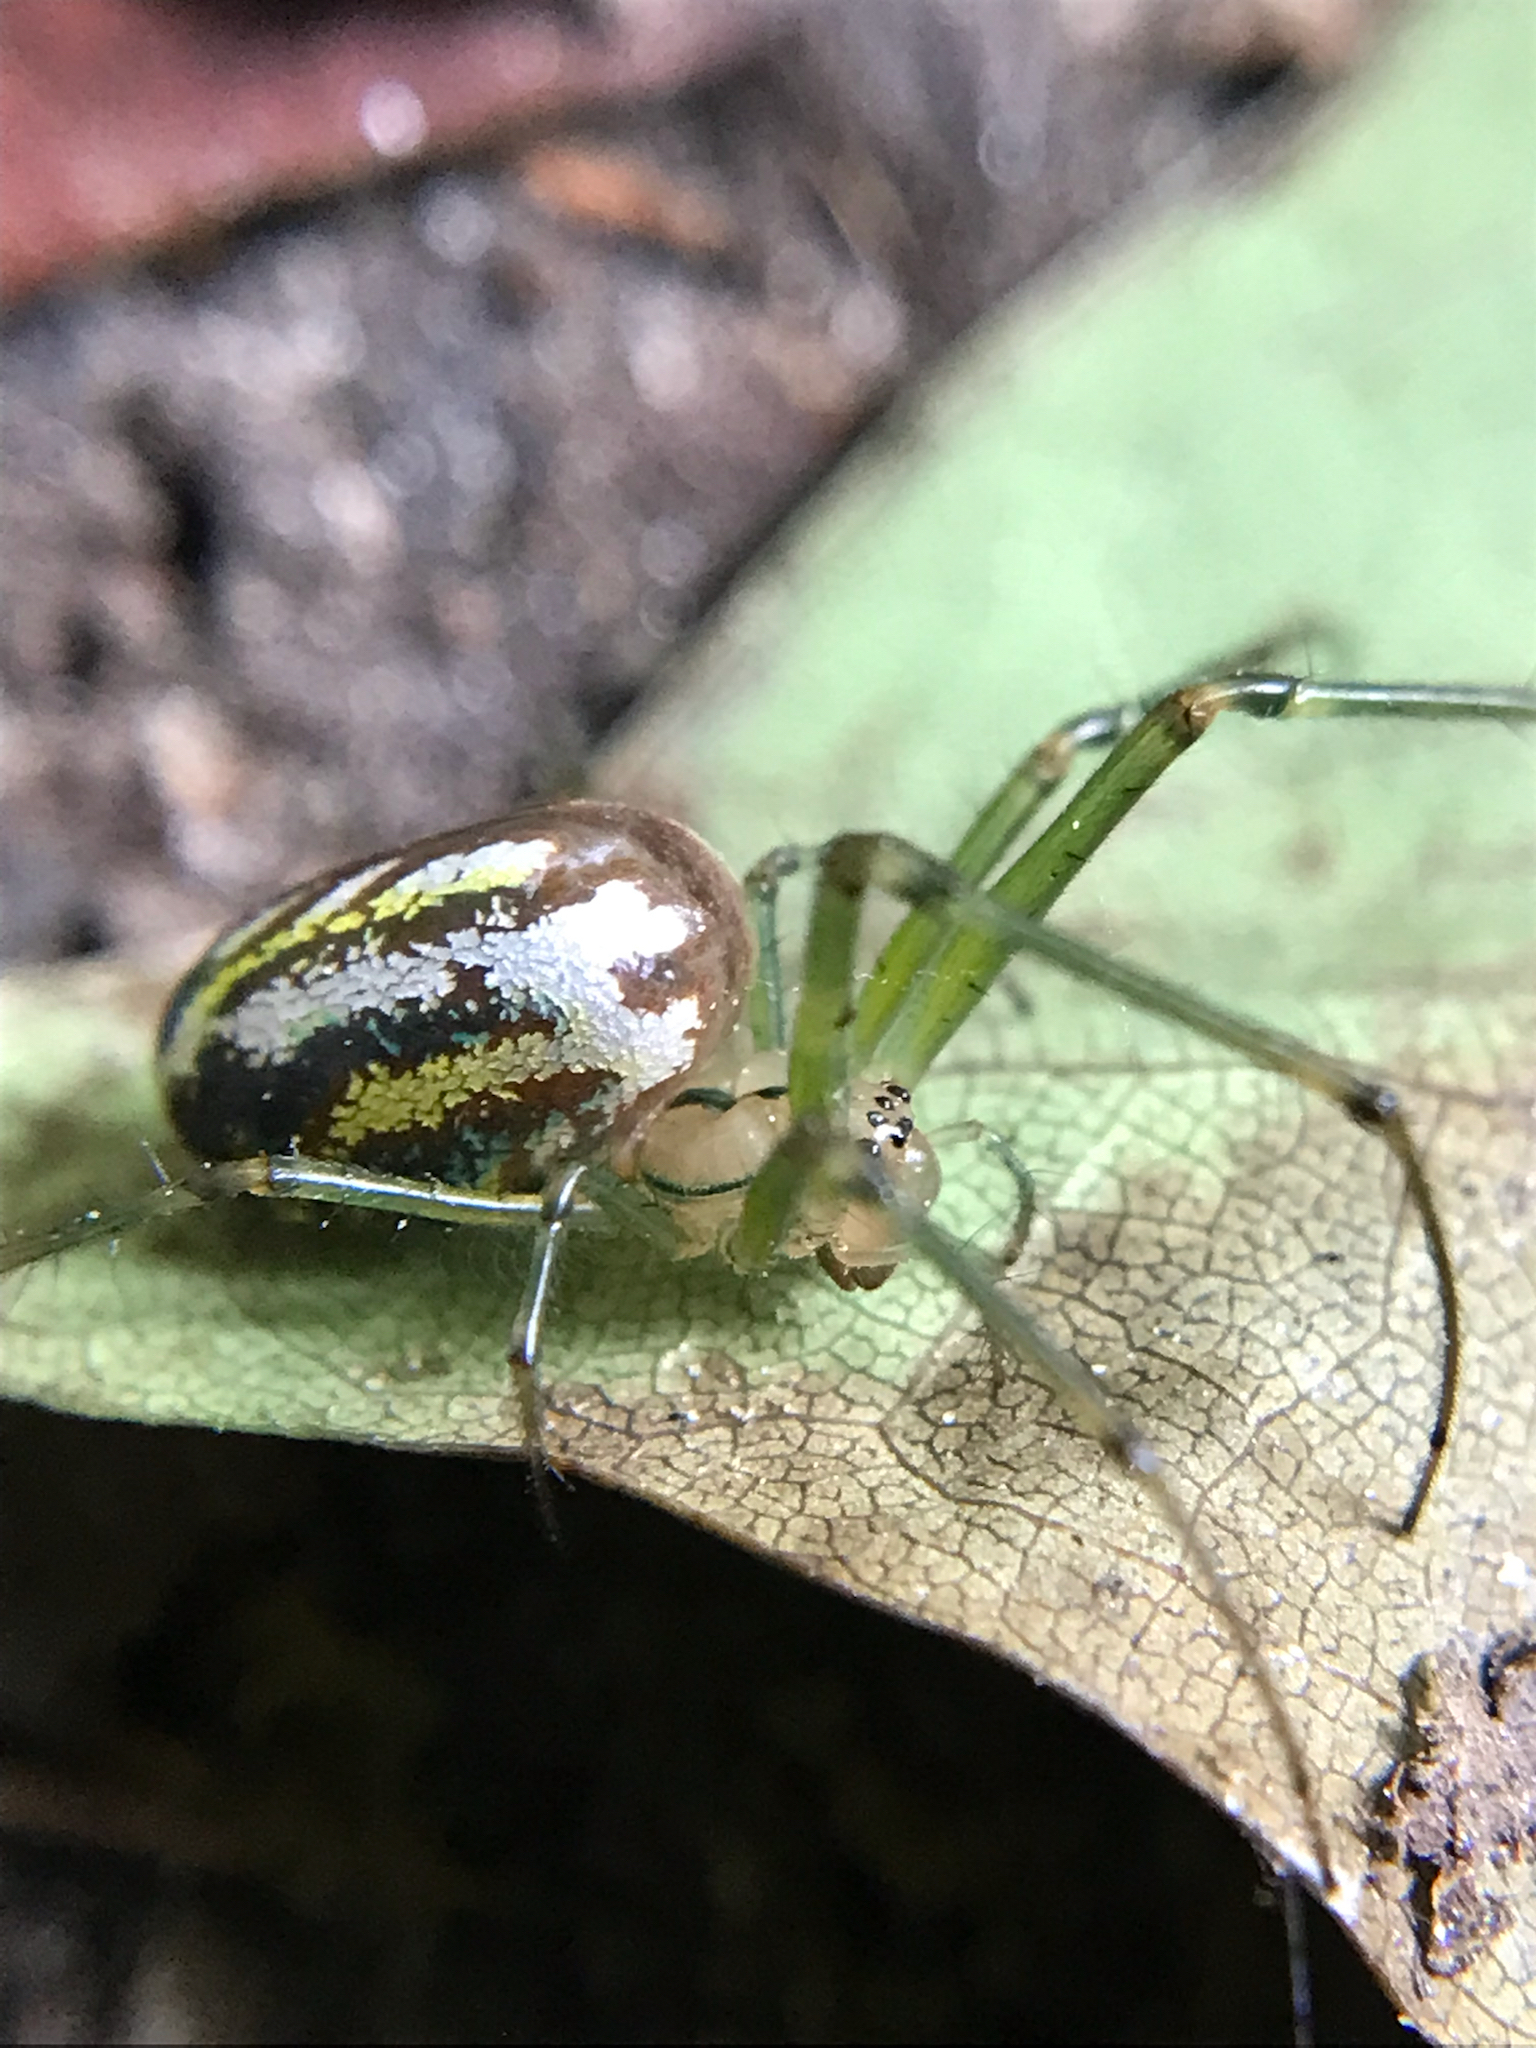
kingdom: Animalia
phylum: Arthropoda
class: Arachnida
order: Araneae
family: Tetragnathidae
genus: Leucauge
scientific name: Leucauge venusta
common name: Longjawed orb weavers
